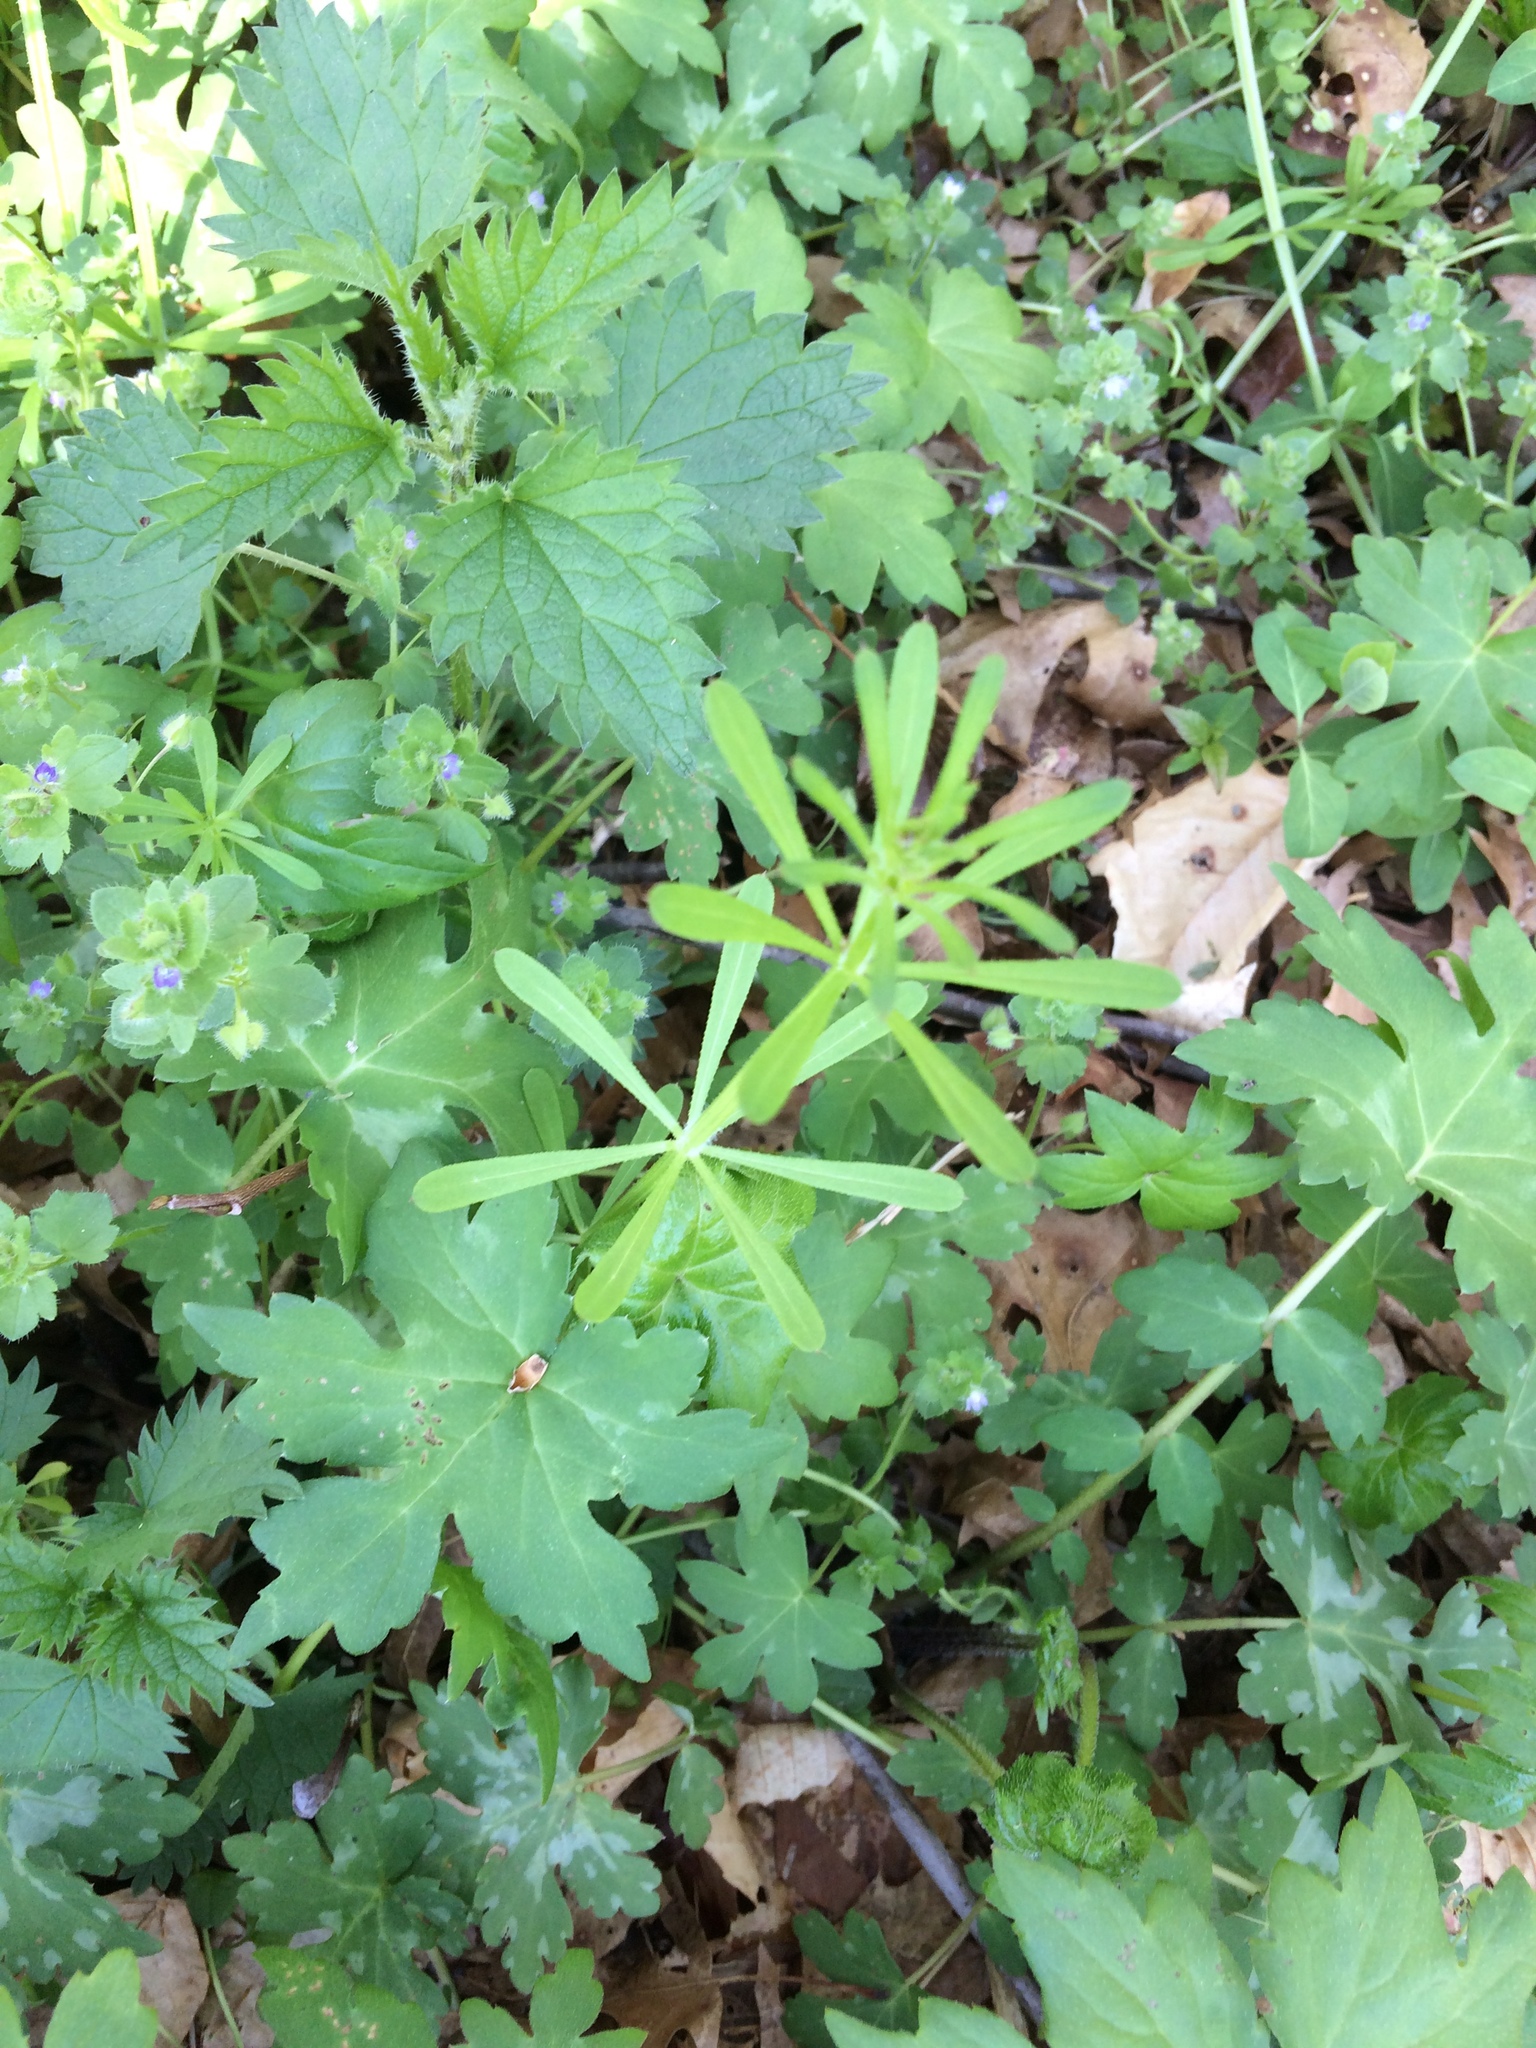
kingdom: Plantae
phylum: Tracheophyta
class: Magnoliopsida
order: Gentianales
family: Rubiaceae
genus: Galium
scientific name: Galium aparine
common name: Cleavers
